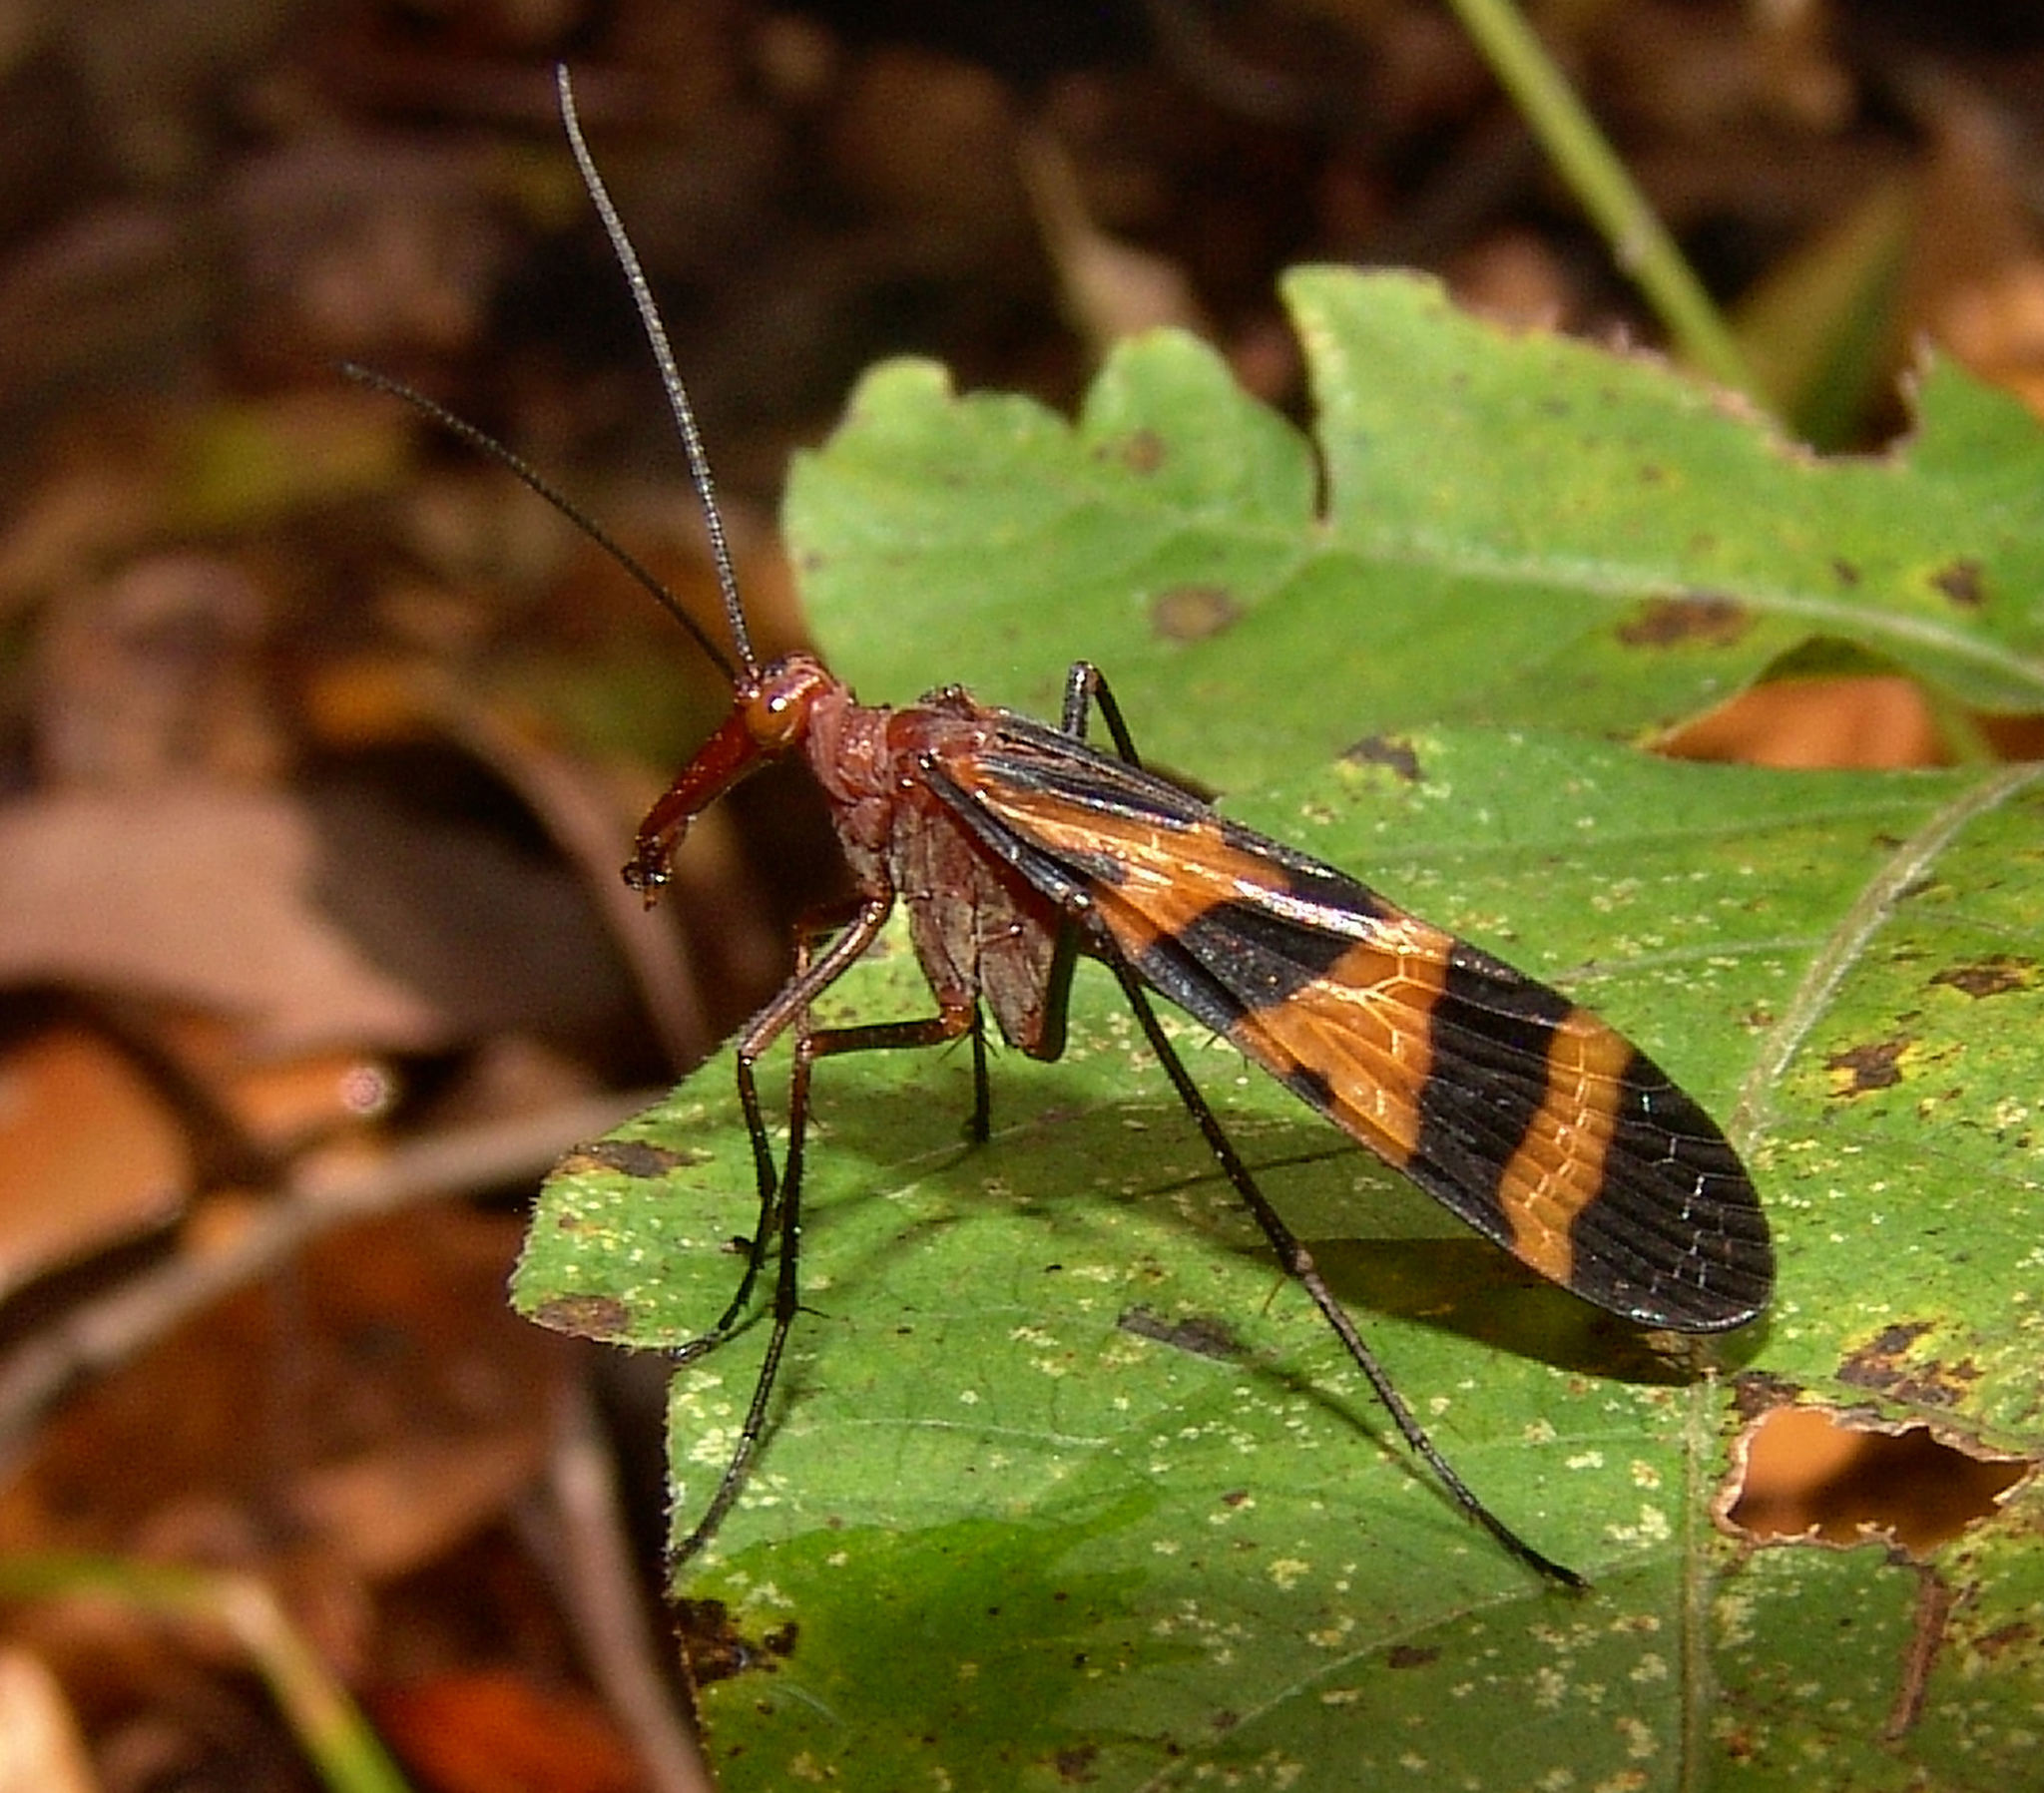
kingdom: Animalia
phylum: Arthropoda
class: Insecta
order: Mecoptera
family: Panorpidae
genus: Panorpa
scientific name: Panorpa nuptialis
